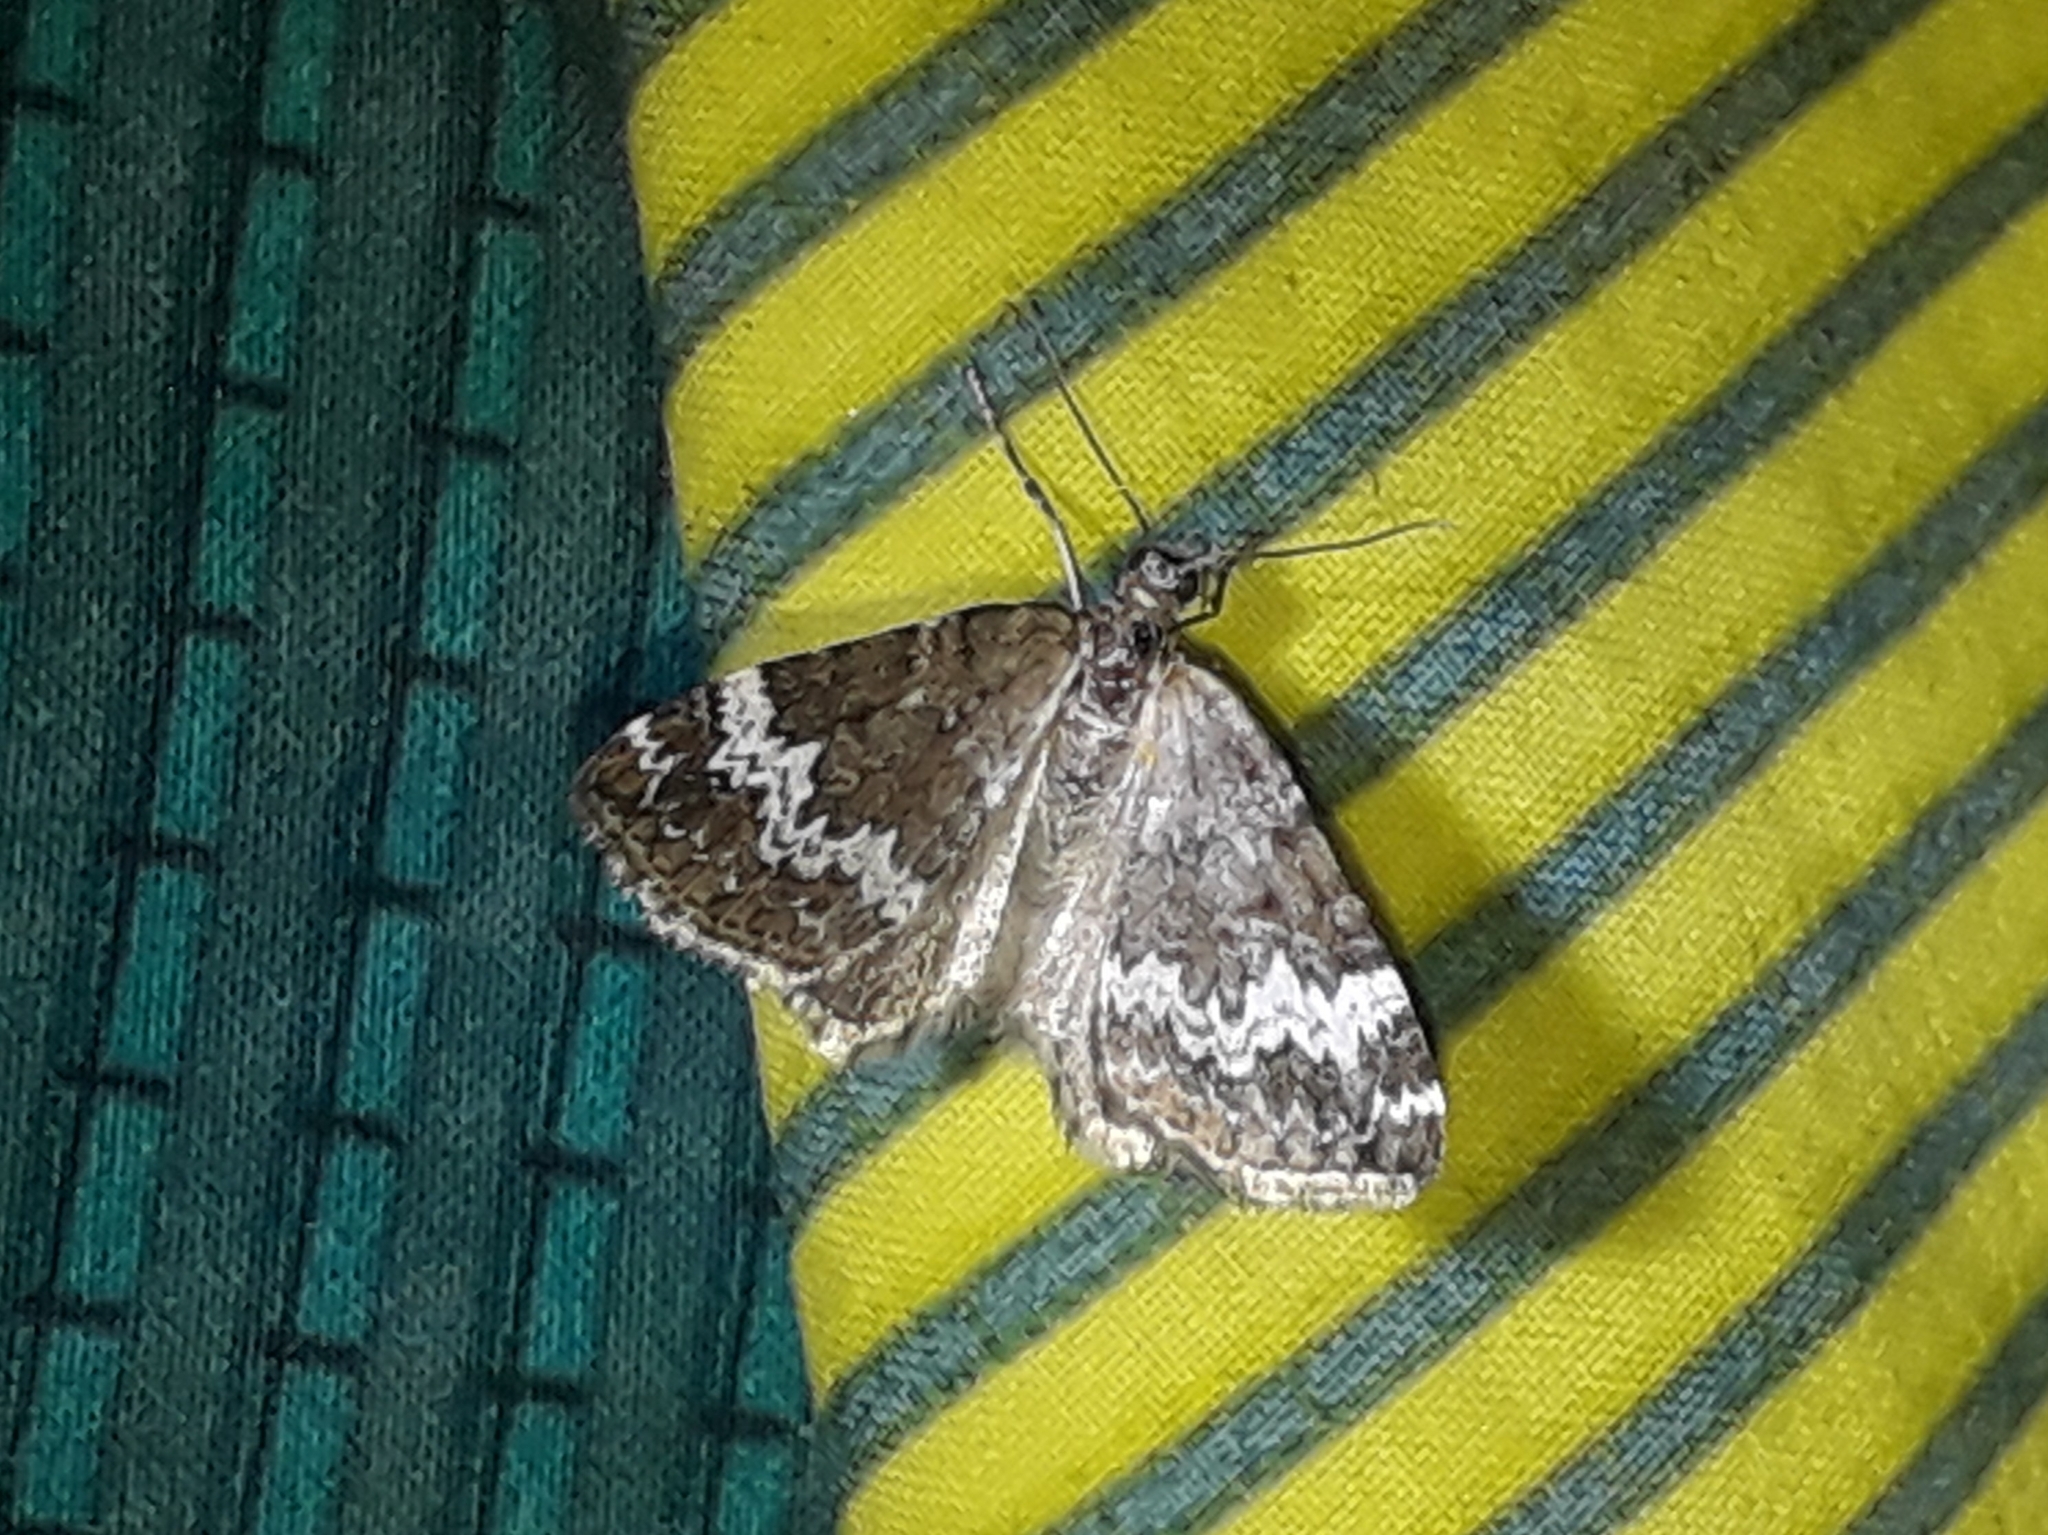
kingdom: Animalia
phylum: Arthropoda
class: Insecta
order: Lepidoptera
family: Geometridae
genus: Perizoma
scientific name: Perizoma alchemillata
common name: Small rivulet
